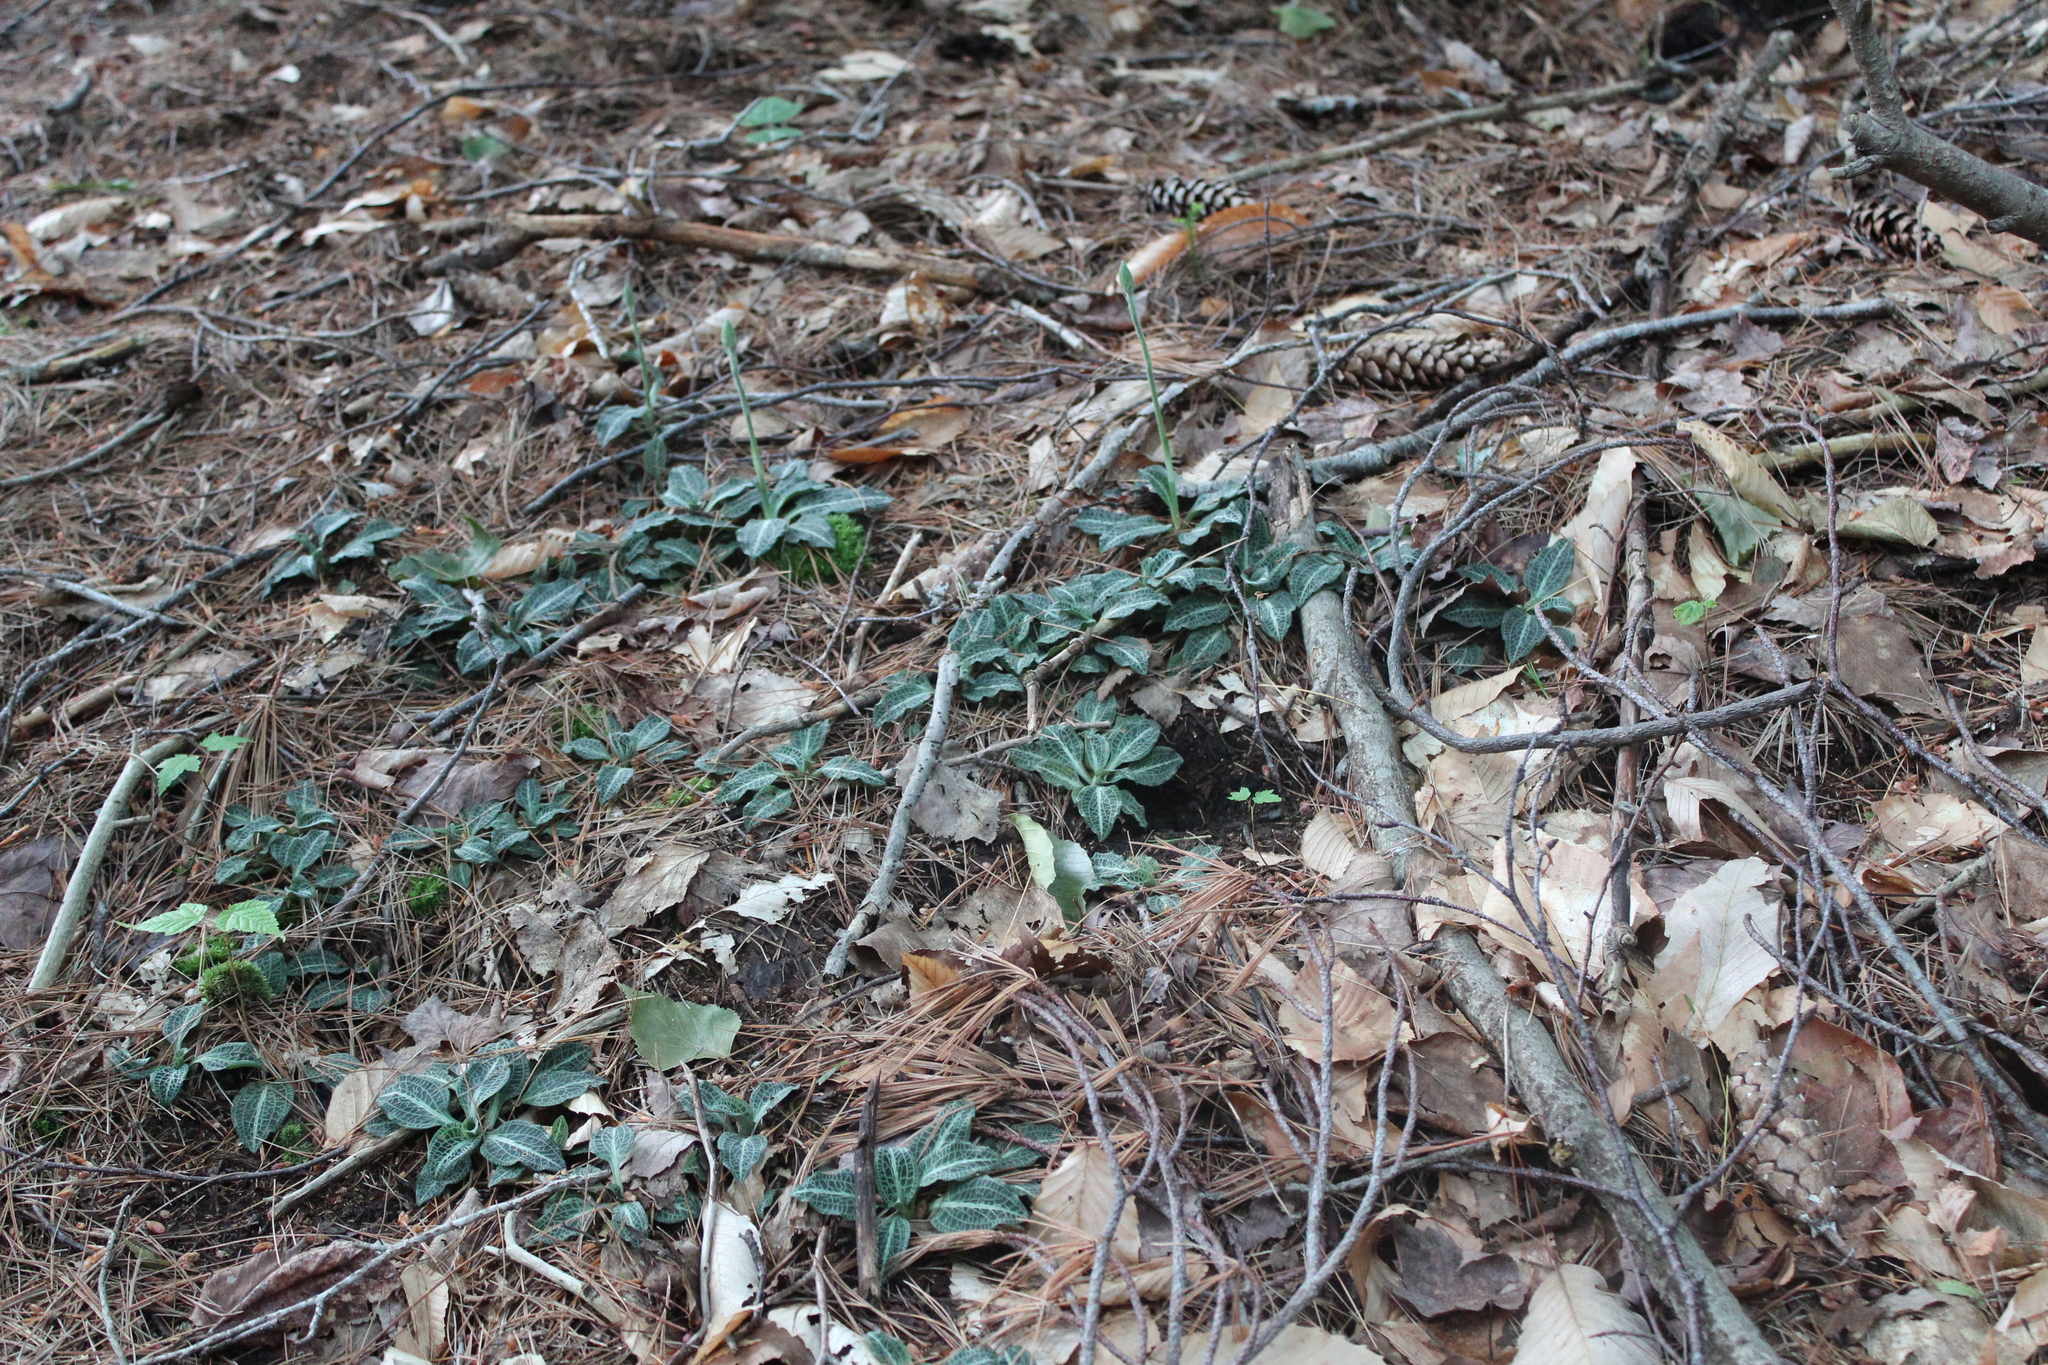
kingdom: Plantae
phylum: Tracheophyta
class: Liliopsida
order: Asparagales
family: Orchidaceae
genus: Goodyera
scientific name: Goodyera pubescens
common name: Downy rattlesnake-plantain
